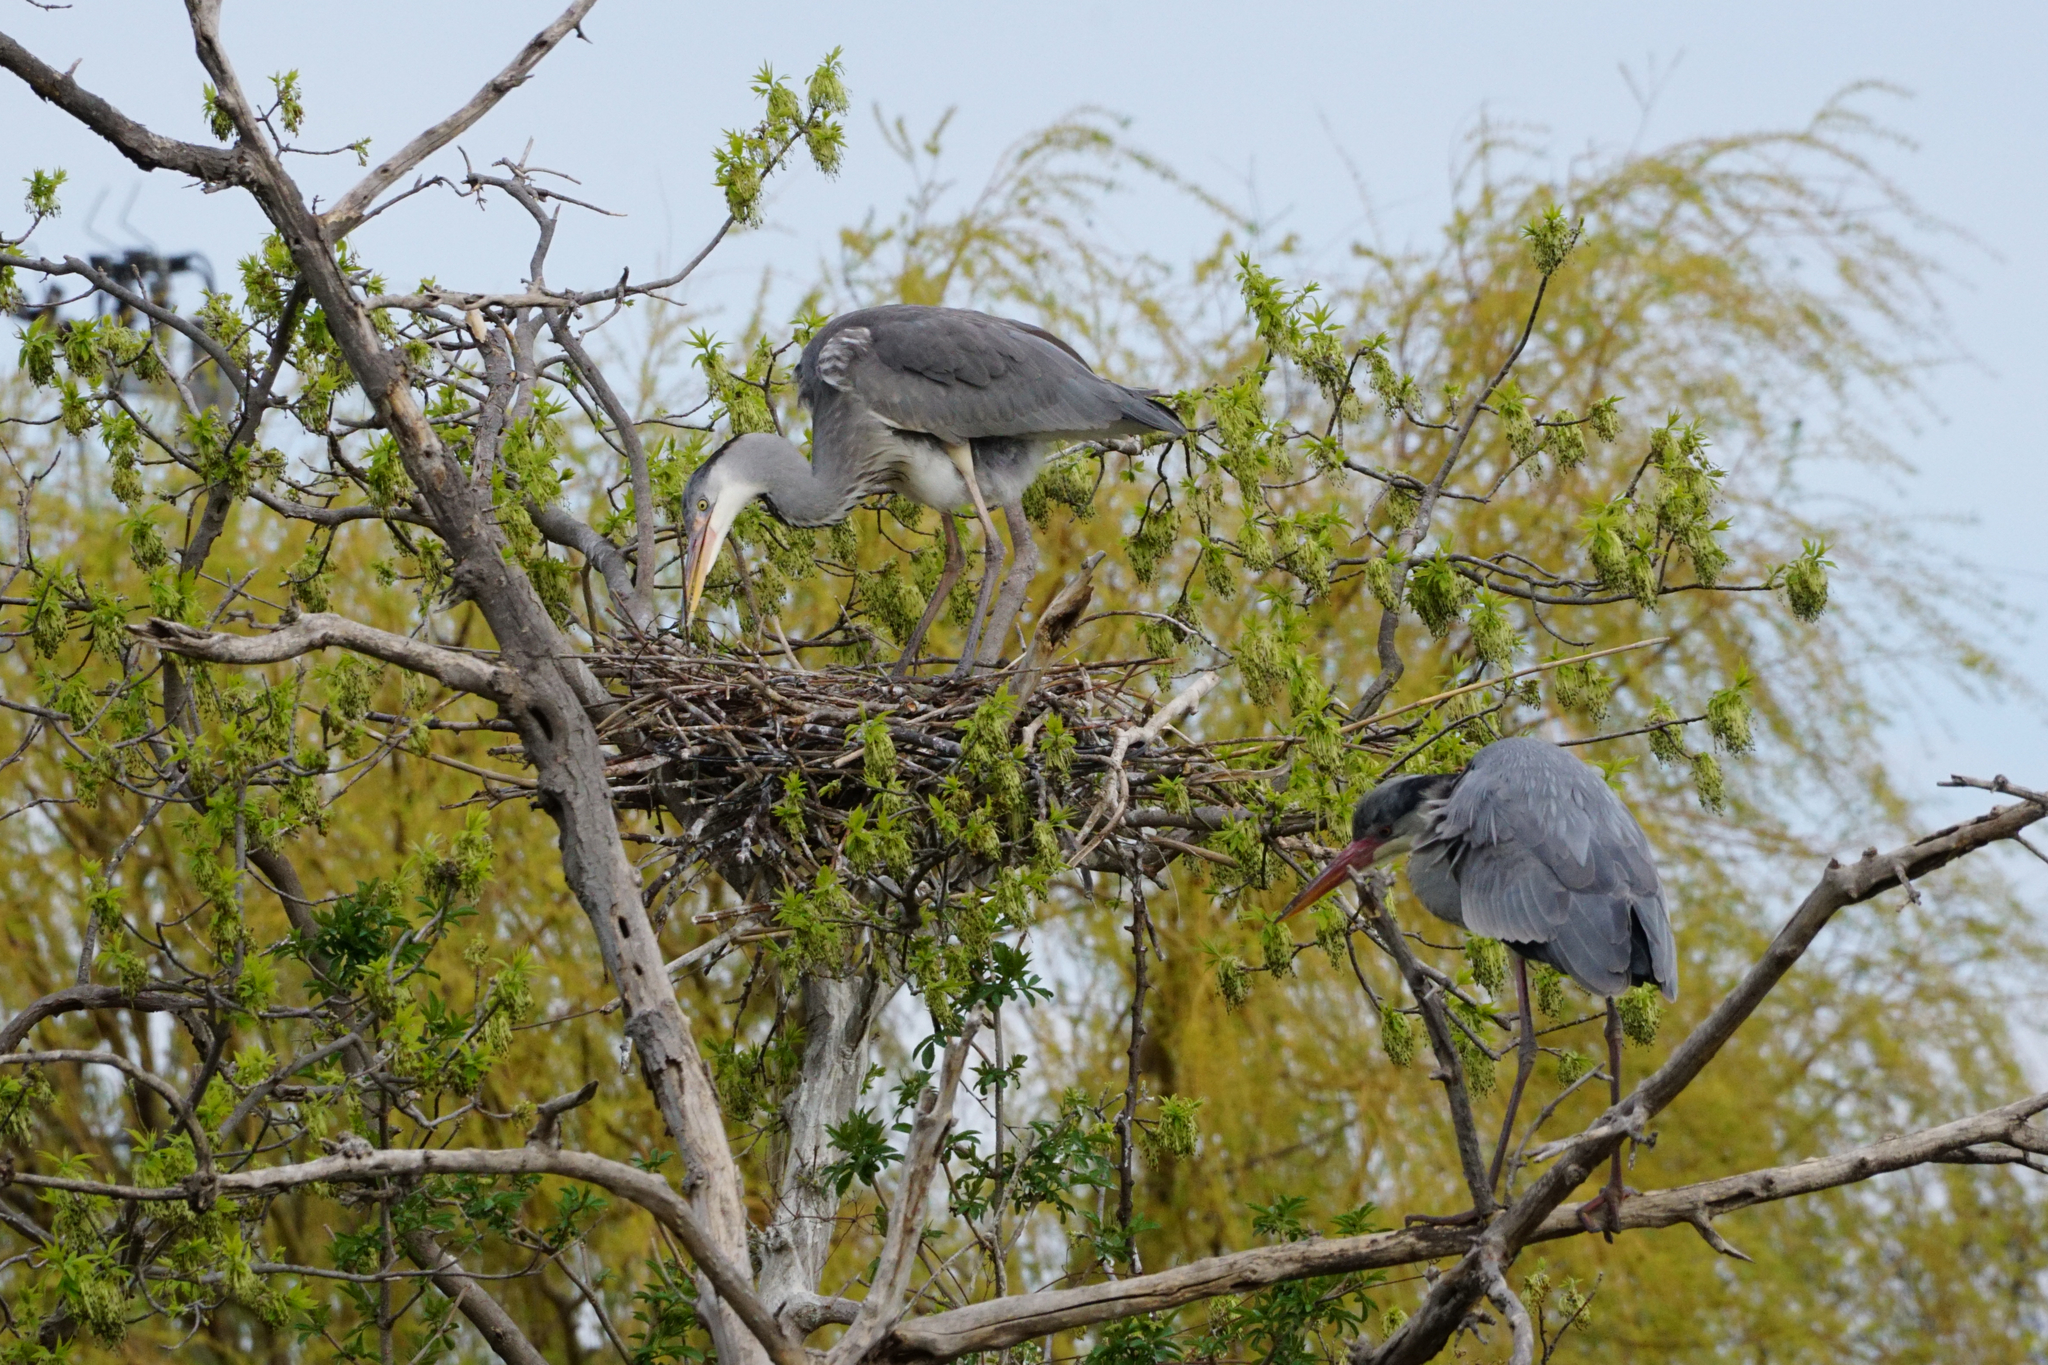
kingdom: Animalia
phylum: Chordata
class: Aves
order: Pelecaniformes
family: Ardeidae
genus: Ardea
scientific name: Ardea cinerea
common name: Grey heron
